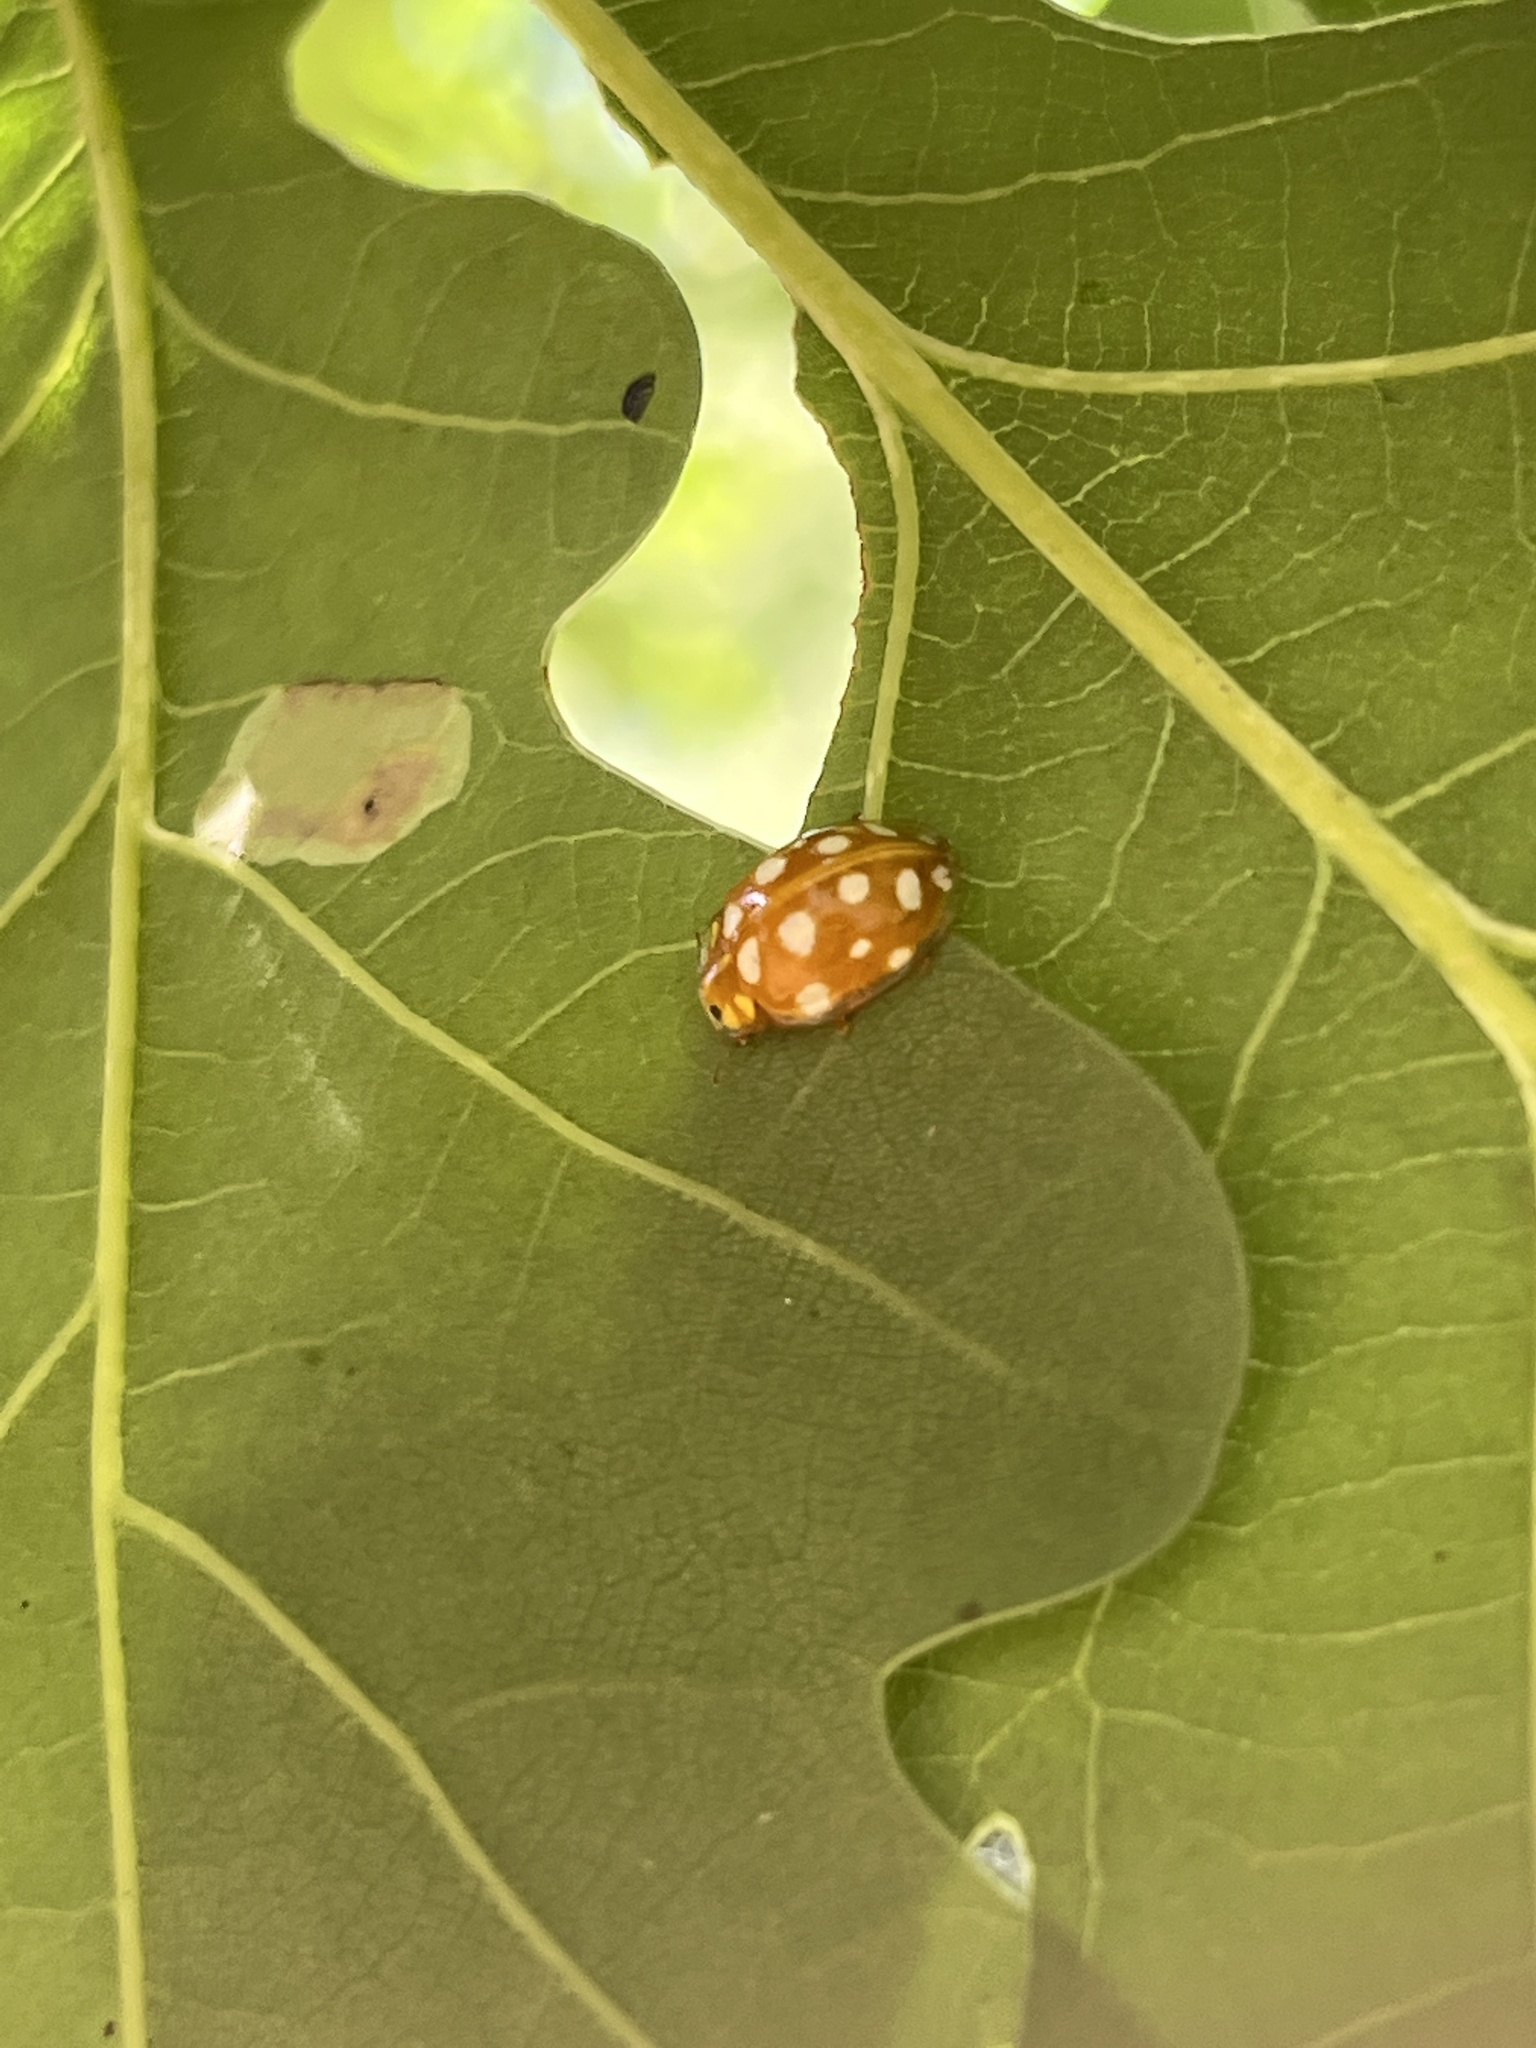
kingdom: Animalia
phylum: Arthropoda
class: Insecta
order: Coleoptera
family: Coccinellidae
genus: Halyzia
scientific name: Halyzia sedecimguttata
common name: Orange ladybird
